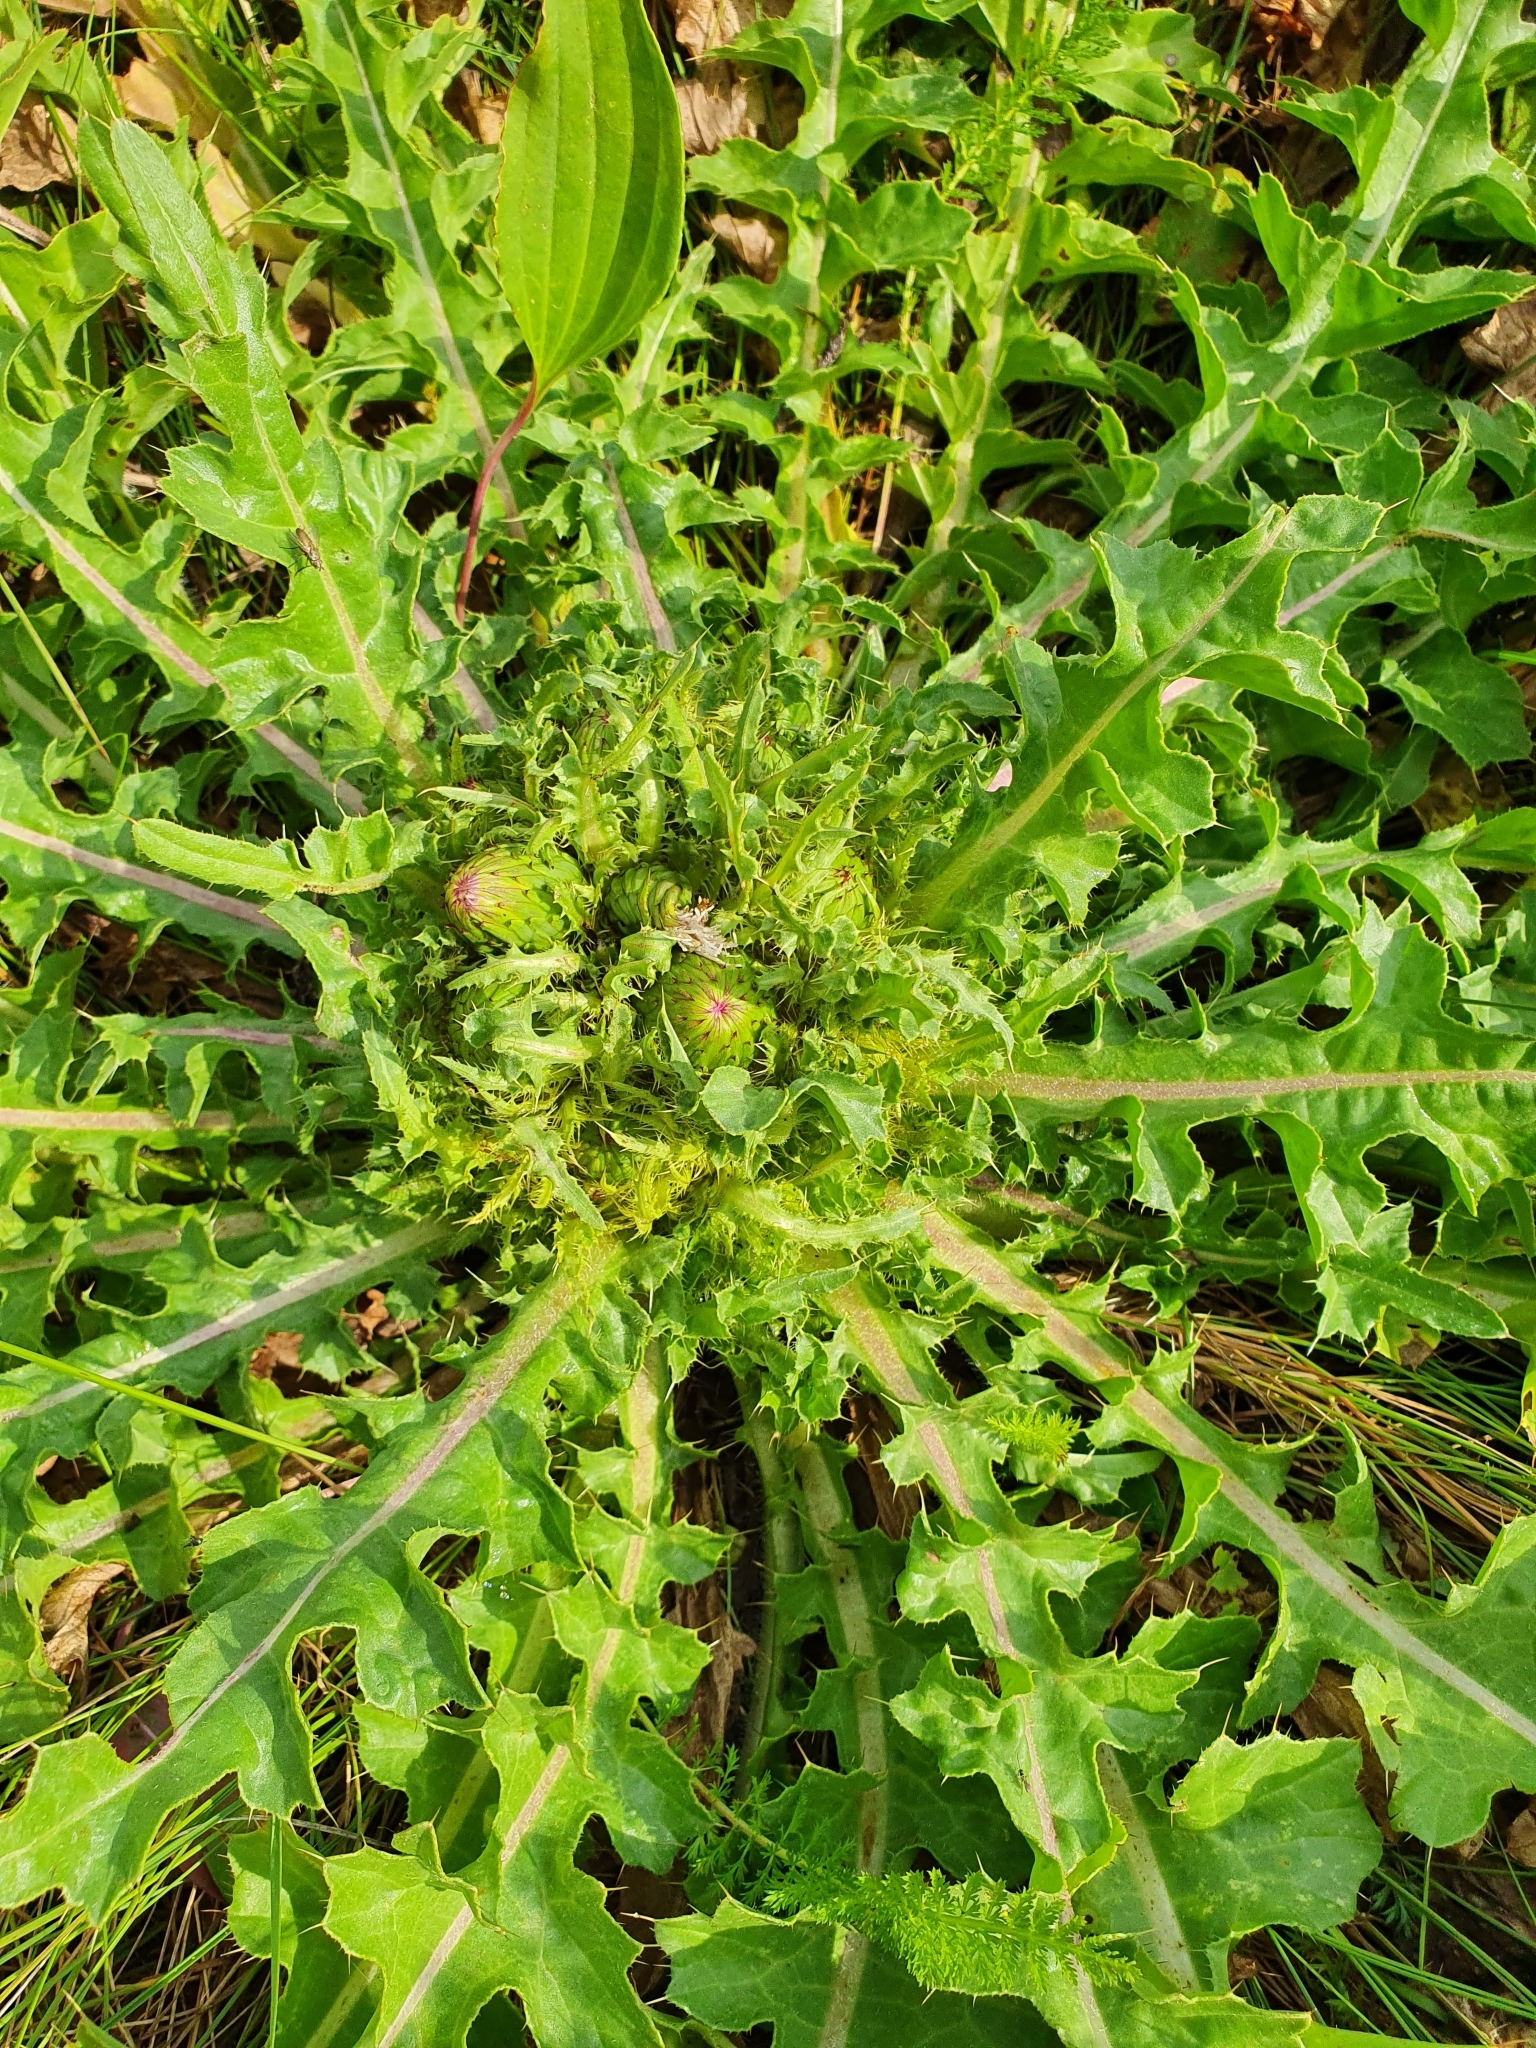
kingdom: Plantae
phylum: Tracheophyta
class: Magnoliopsida
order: Asterales
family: Asteraceae
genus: Cirsium
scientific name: Cirsium esculentum
